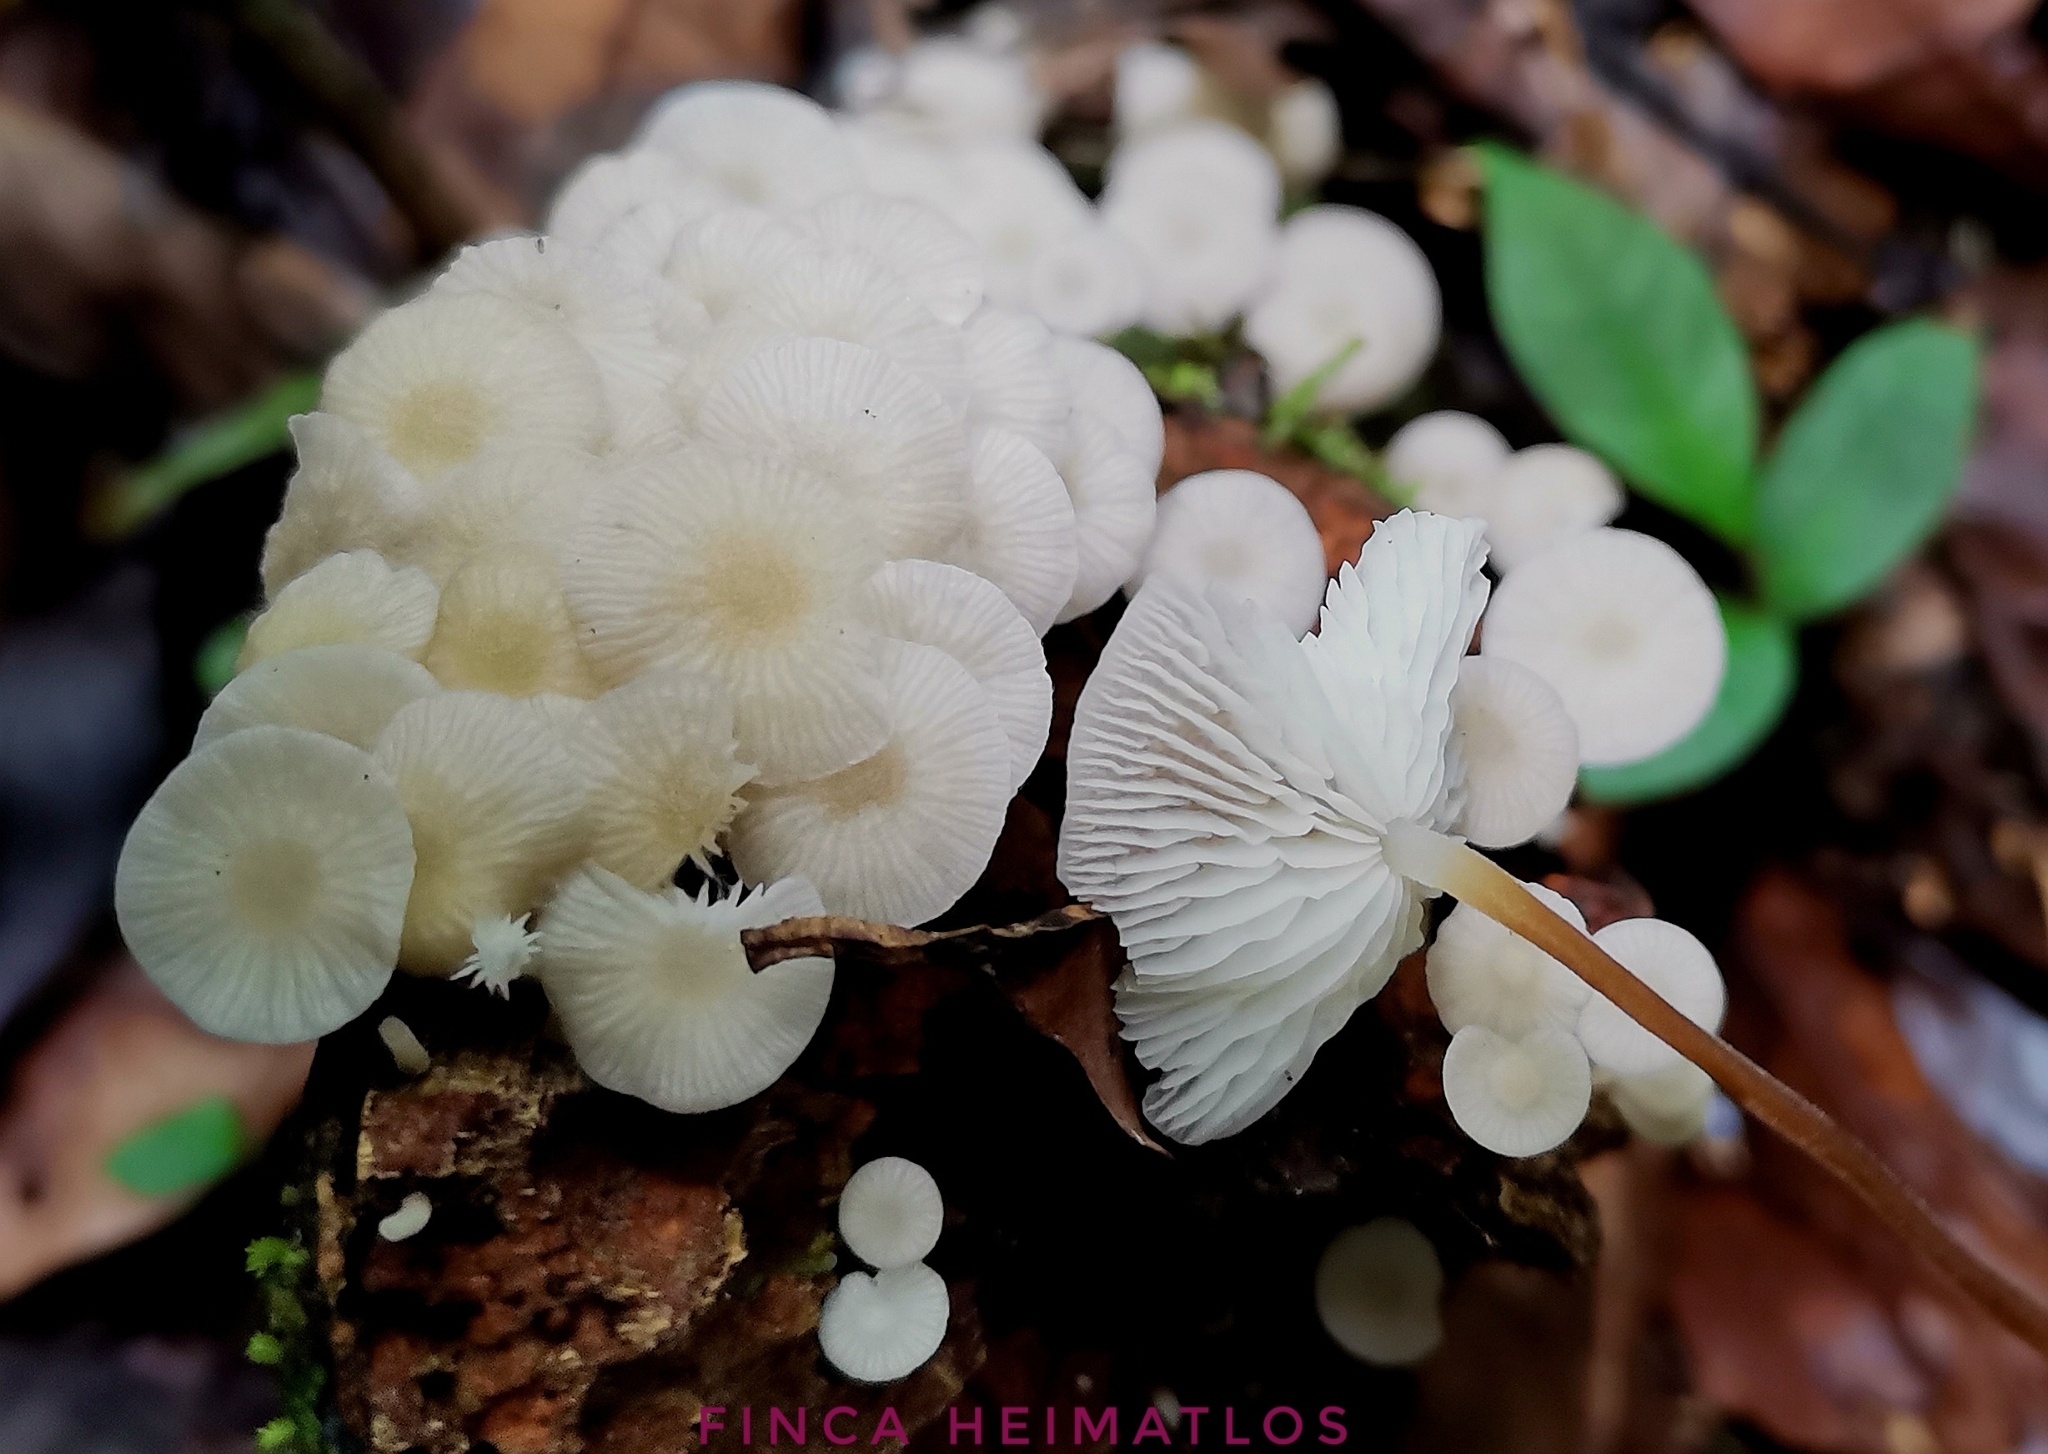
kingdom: Fungi
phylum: Basidiomycota
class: Agaricomycetes
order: Agaricales
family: Mycenaceae
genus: Hydropus
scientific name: Hydropus irroratus
